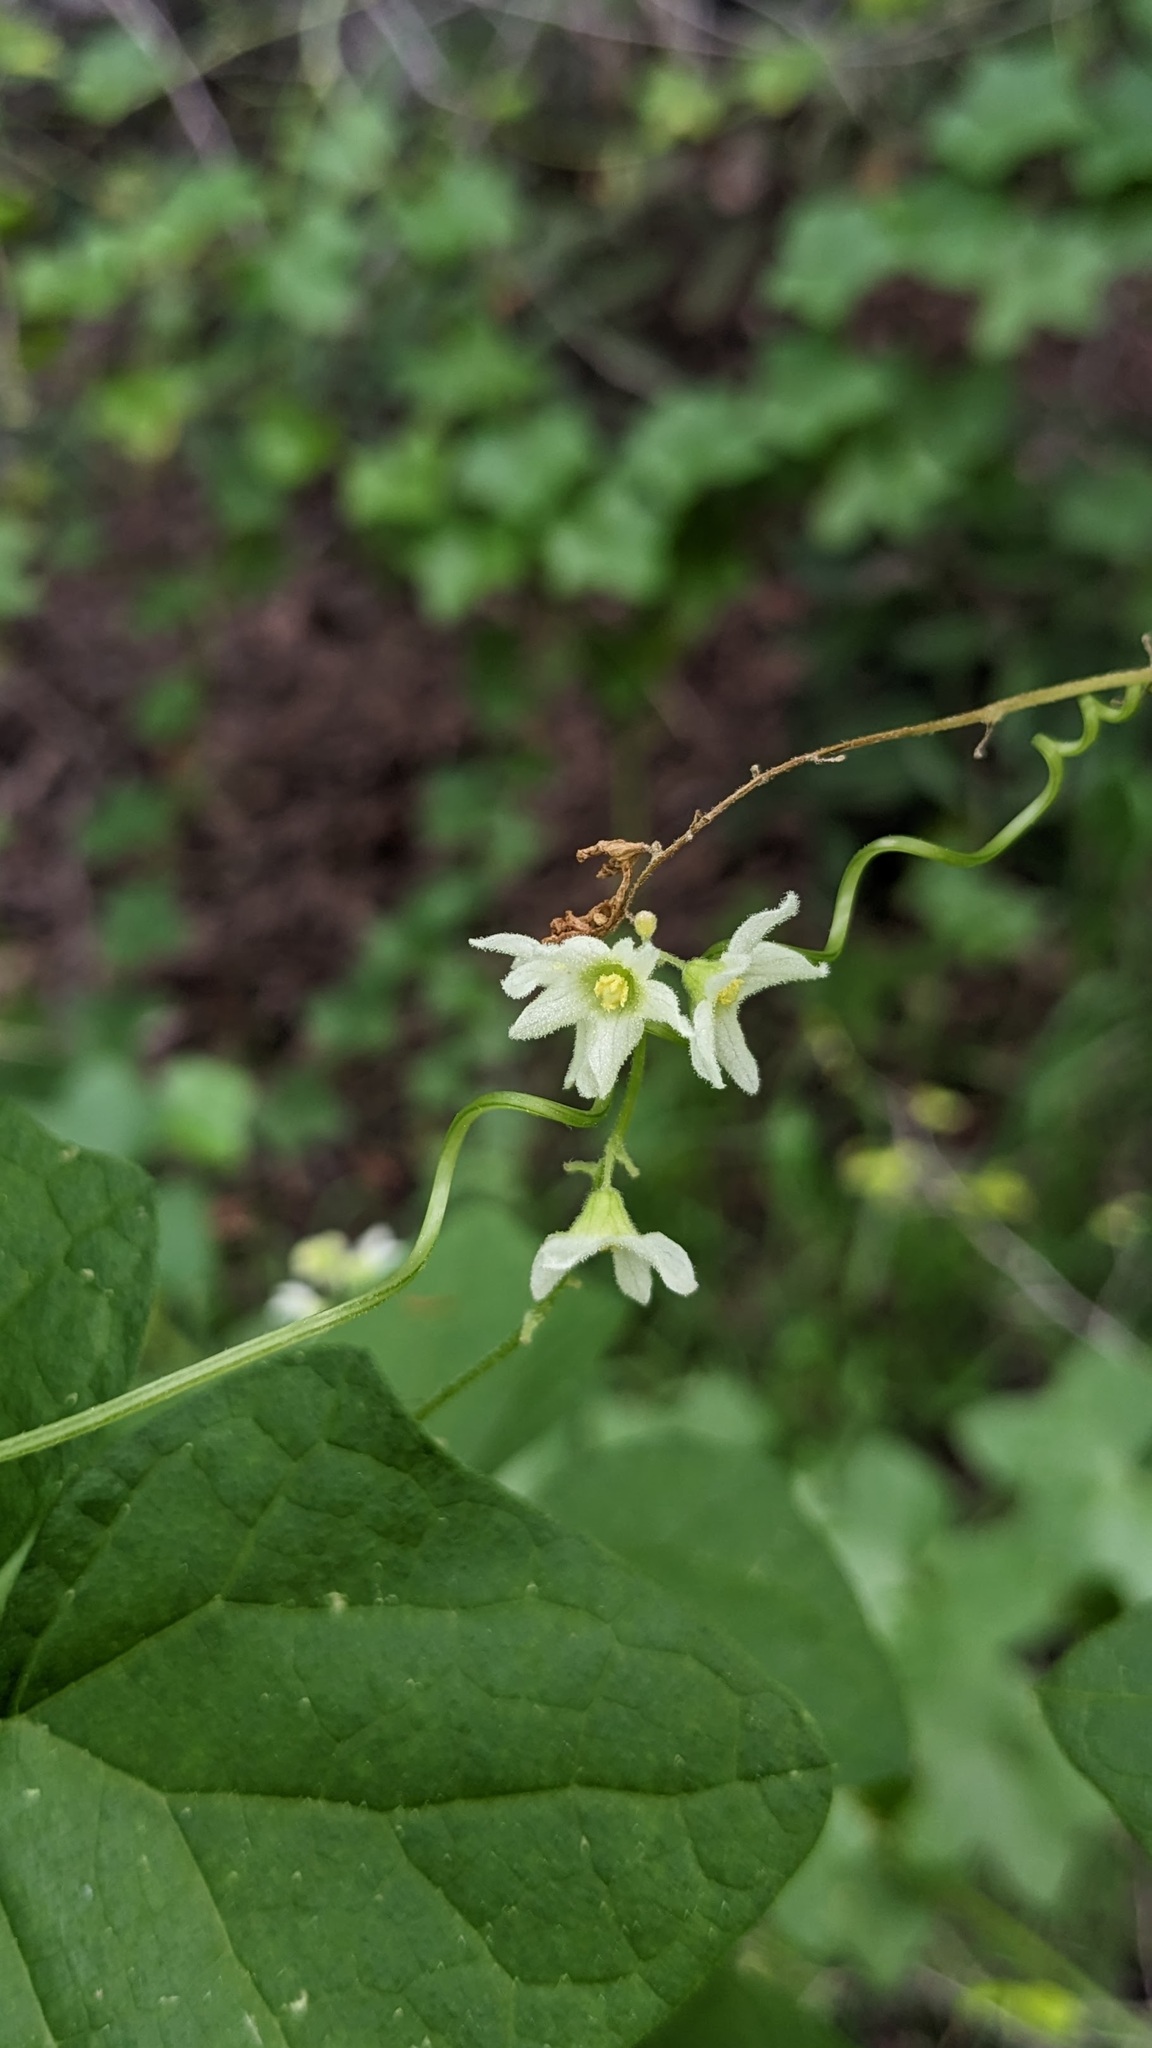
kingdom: Plantae
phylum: Tracheophyta
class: Magnoliopsida
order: Cucurbitales
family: Cucurbitaceae
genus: Marah
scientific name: Marah macrocarpa
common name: Cucamonga manroot
